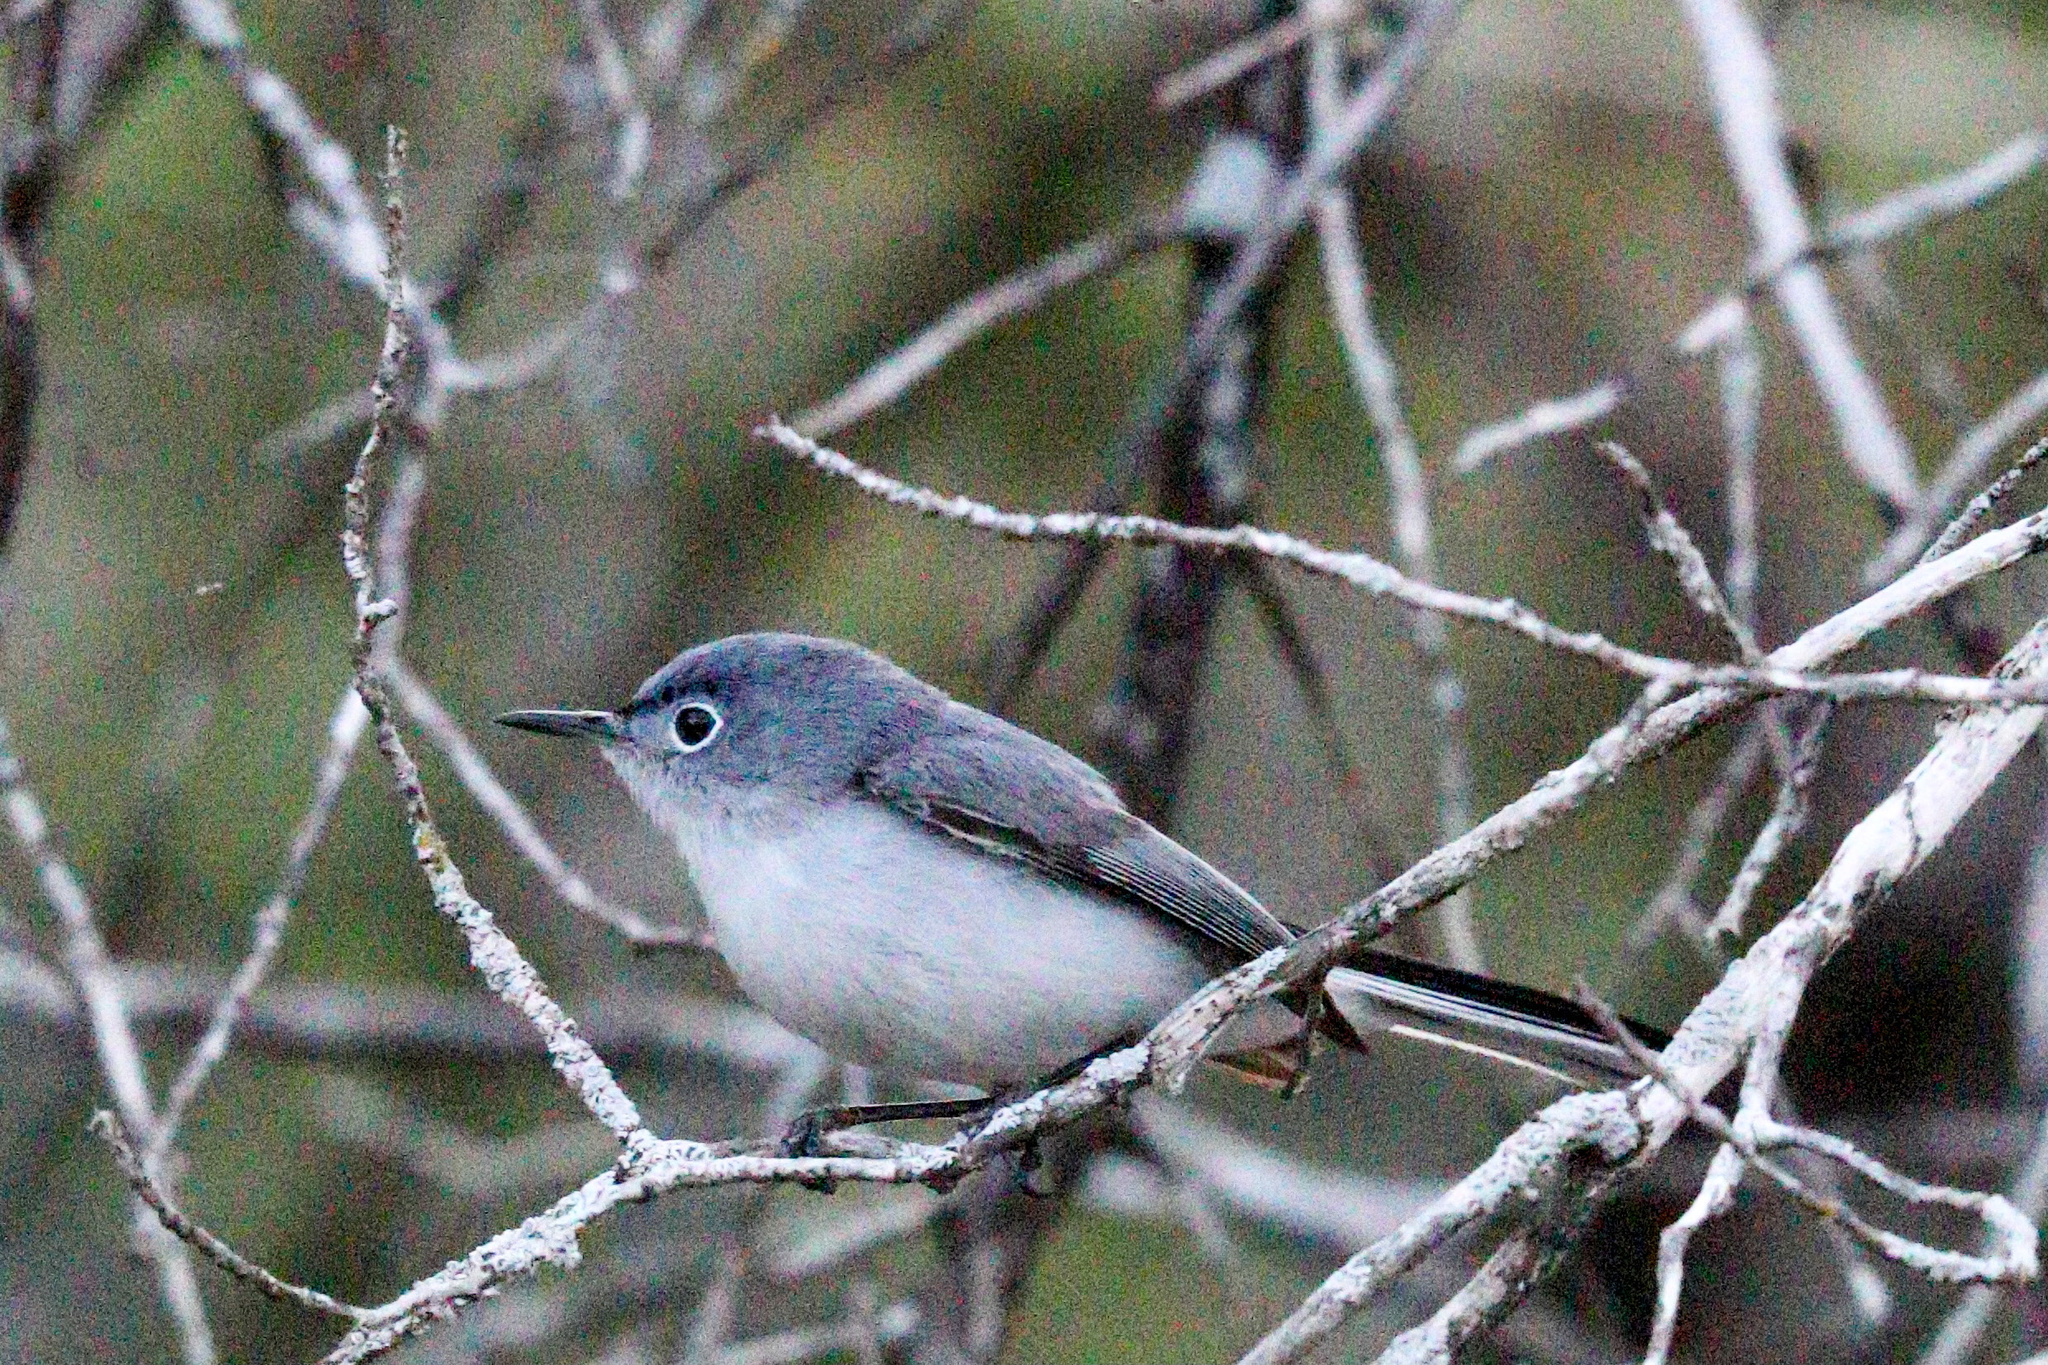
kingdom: Animalia
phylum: Chordata
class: Aves
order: Passeriformes
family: Polioptilidae
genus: Polioptila
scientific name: Polioptila caerulea
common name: Blue-gray gnatcatcher
